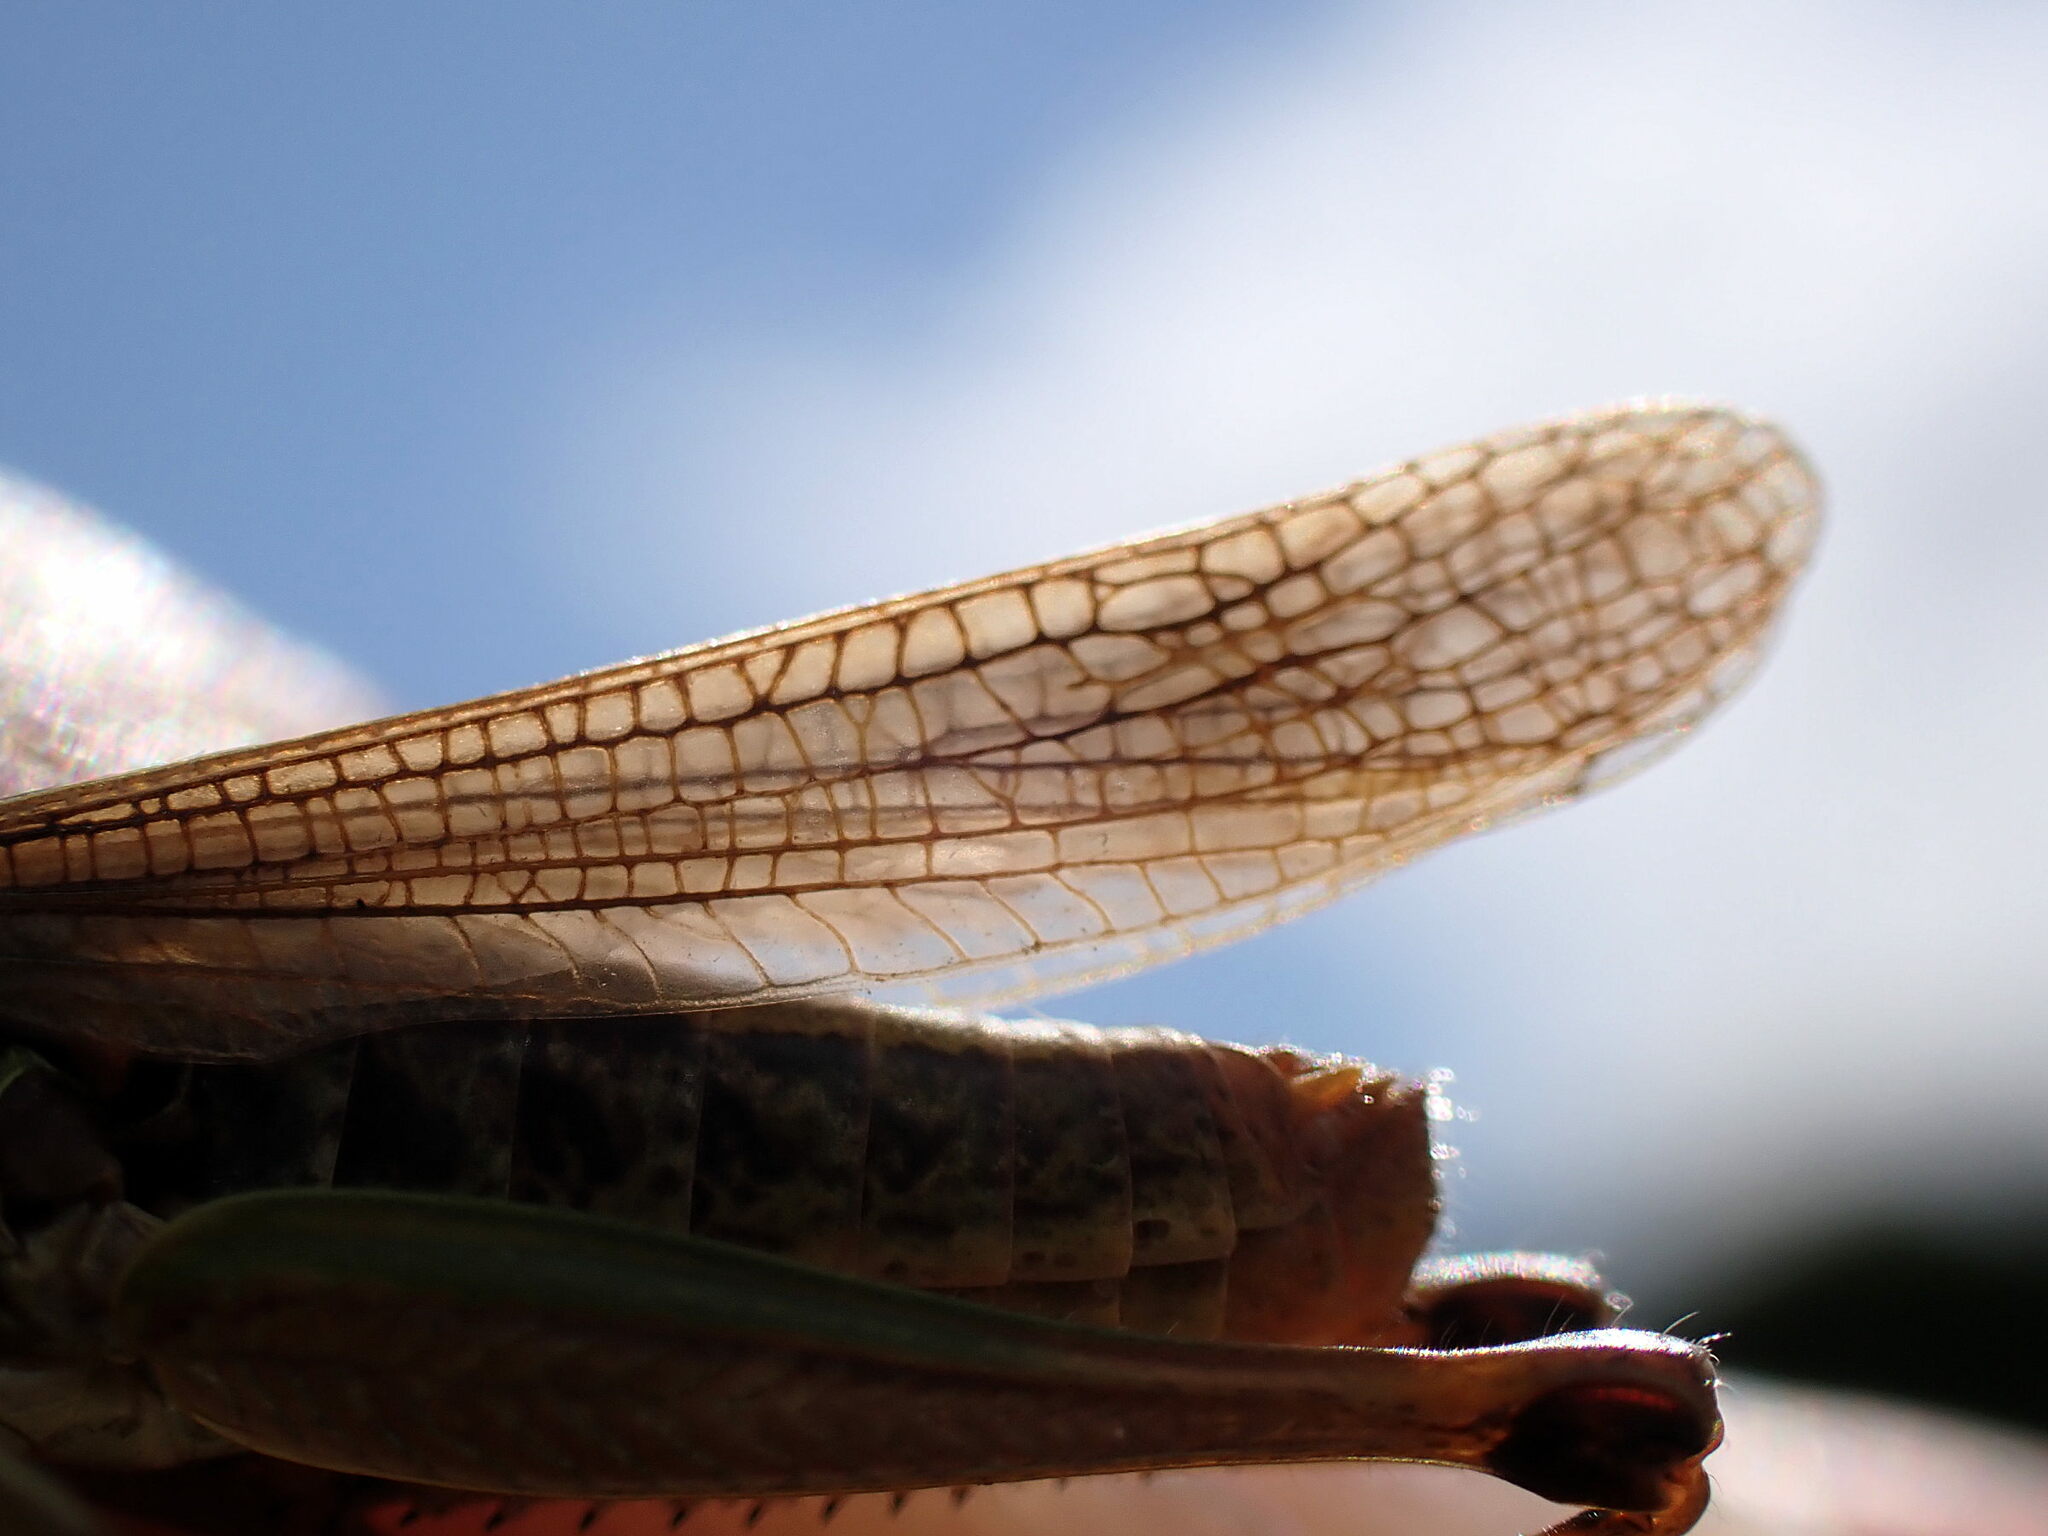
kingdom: Animalia
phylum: Arthropoda
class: Insecta
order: Orthoptera
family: Acrididae
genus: Pseudochorthippus
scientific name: Pseudochorthippus parallelus
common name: Meadow grasshopper
